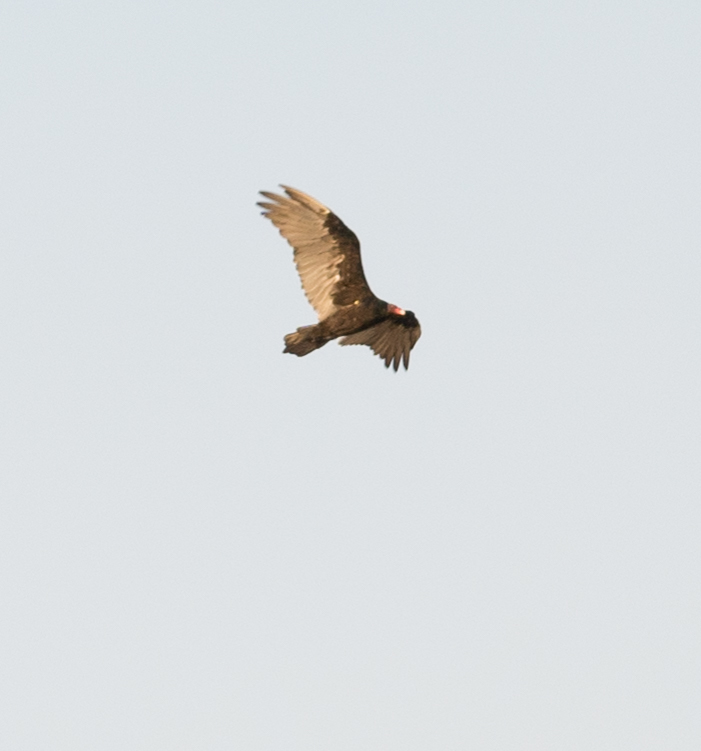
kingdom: Animalia
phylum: Chordata
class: Aves
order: Accipitriformes
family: Cathartidae
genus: Cathartes
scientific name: Cathartes aura
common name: Turkey vulture
